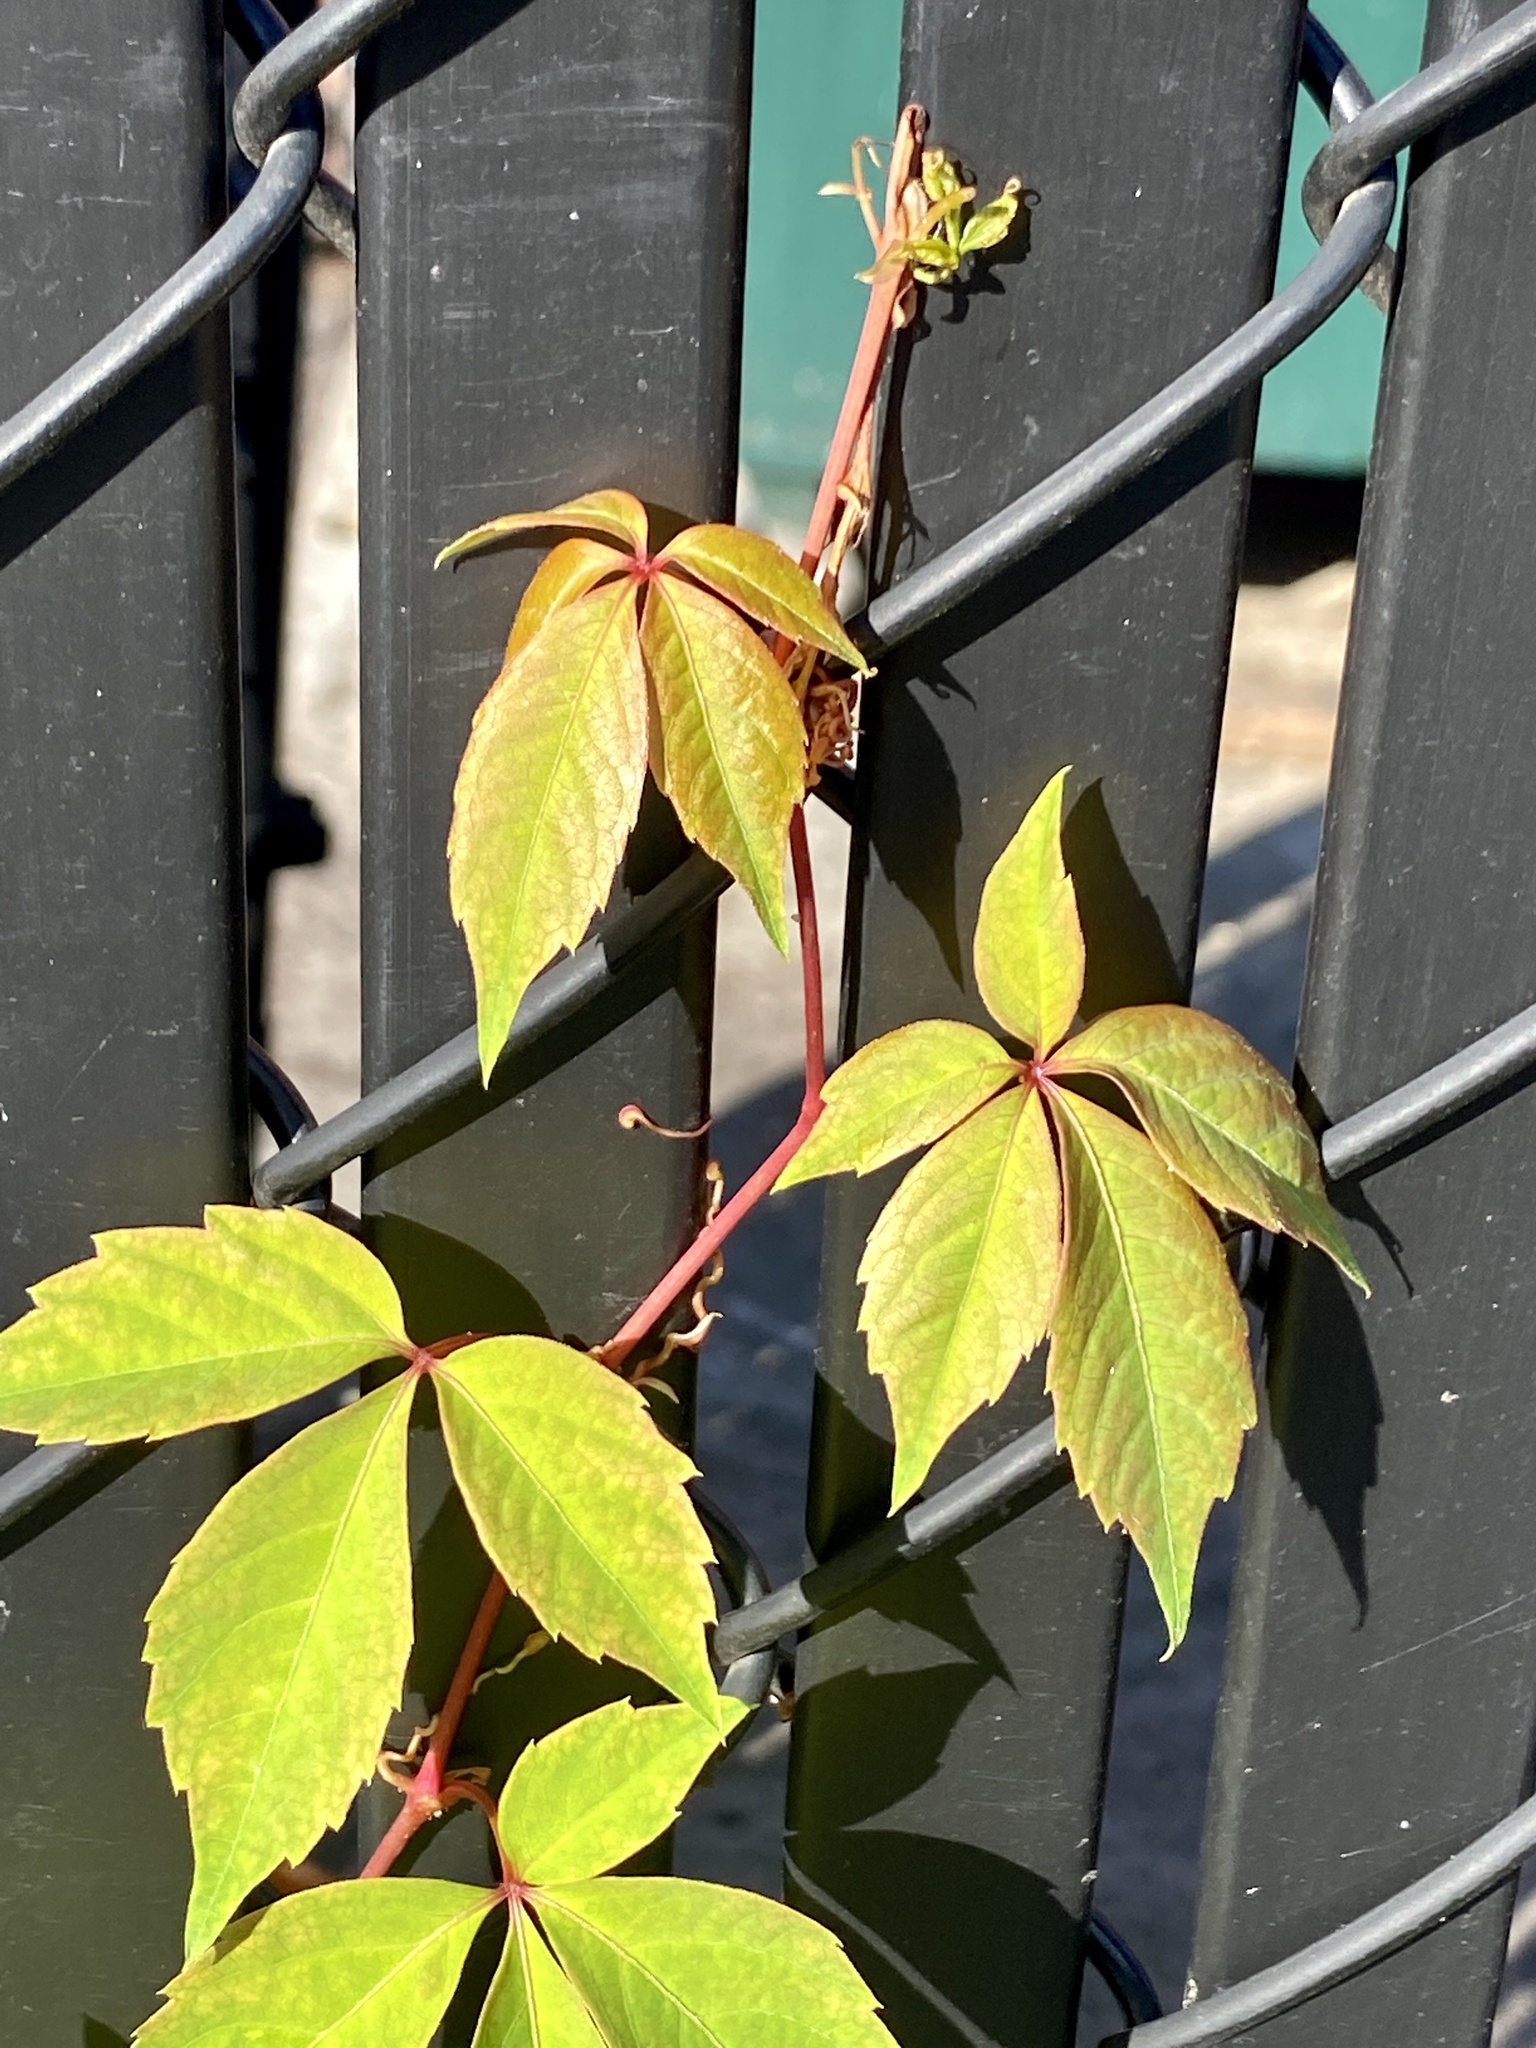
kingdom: Plantae
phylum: Tracheophyta
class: Magnoliopsida
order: Vitales
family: Vitaceae
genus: Parthenocissus
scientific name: Parthenocissus quinquefolia
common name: Virginia-creeper
